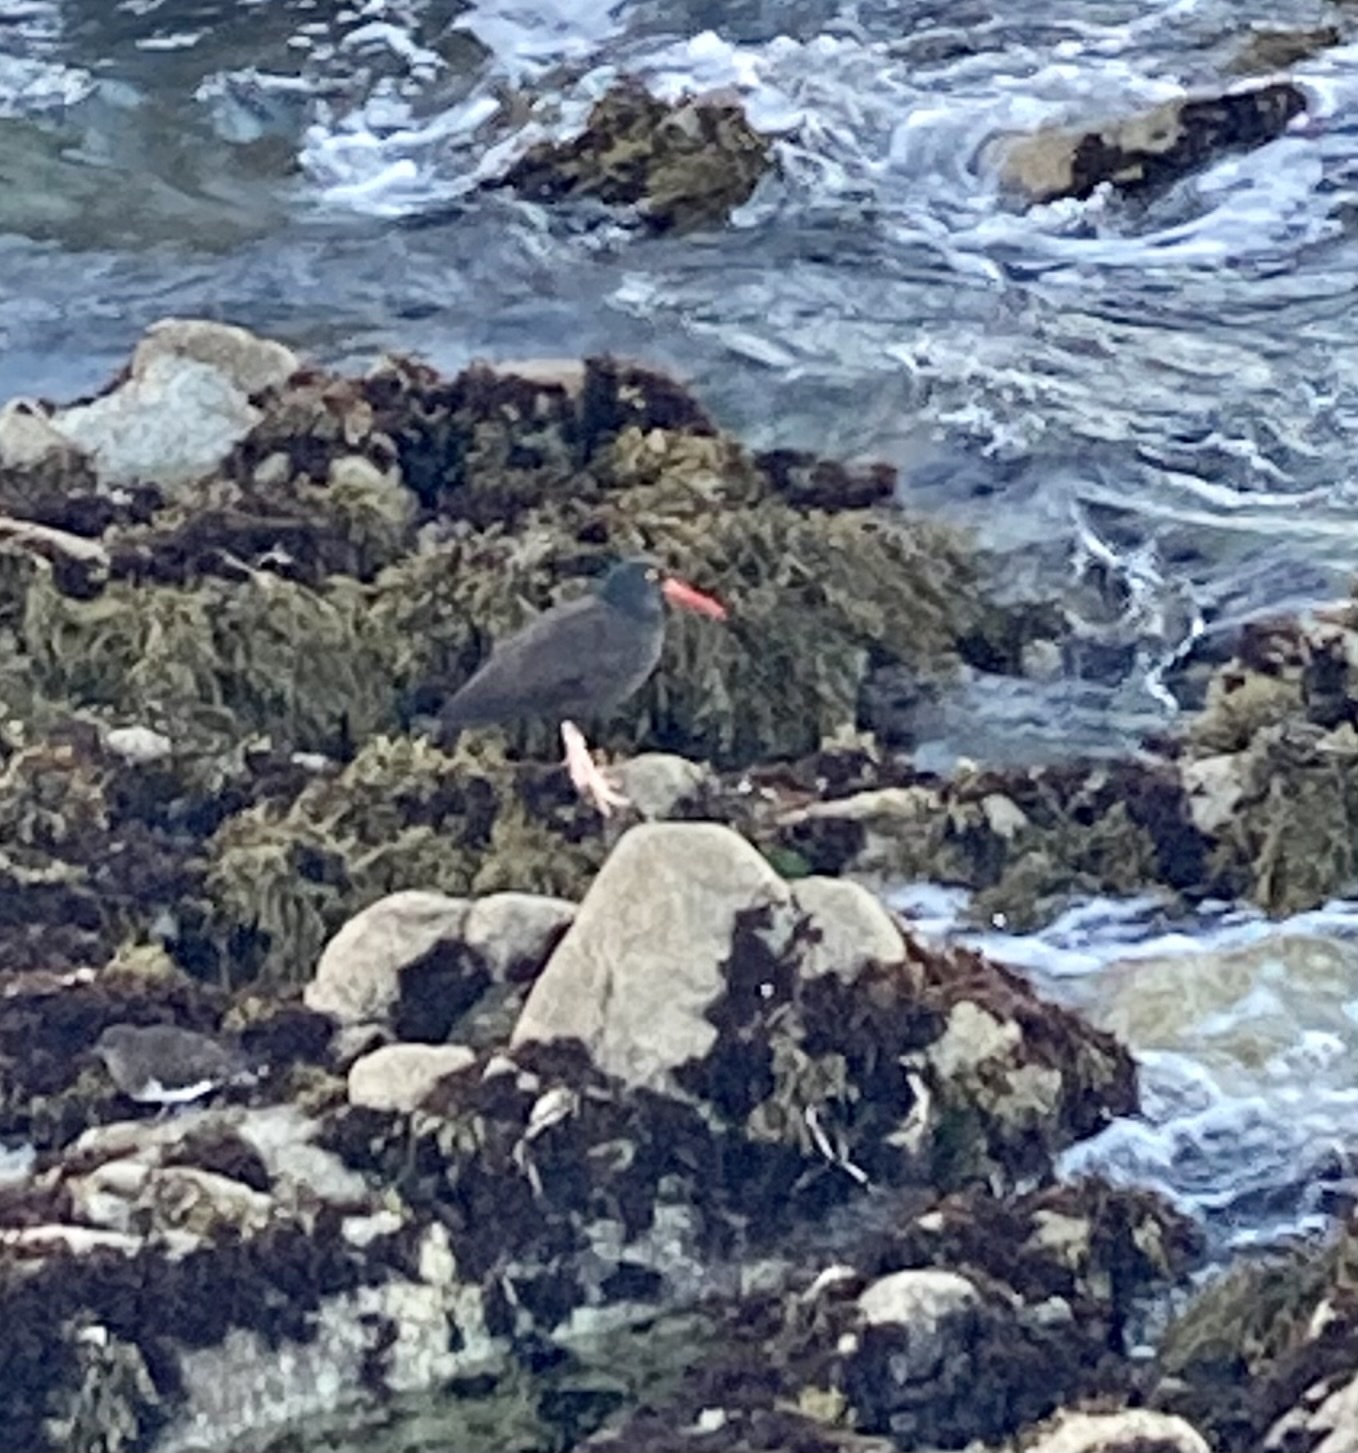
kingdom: Animalia
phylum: Chordata
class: Aves
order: Charadriiformes
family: Haematopodidae
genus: Haematopus
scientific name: Haematopus bachmani
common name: Black oystercatcher
